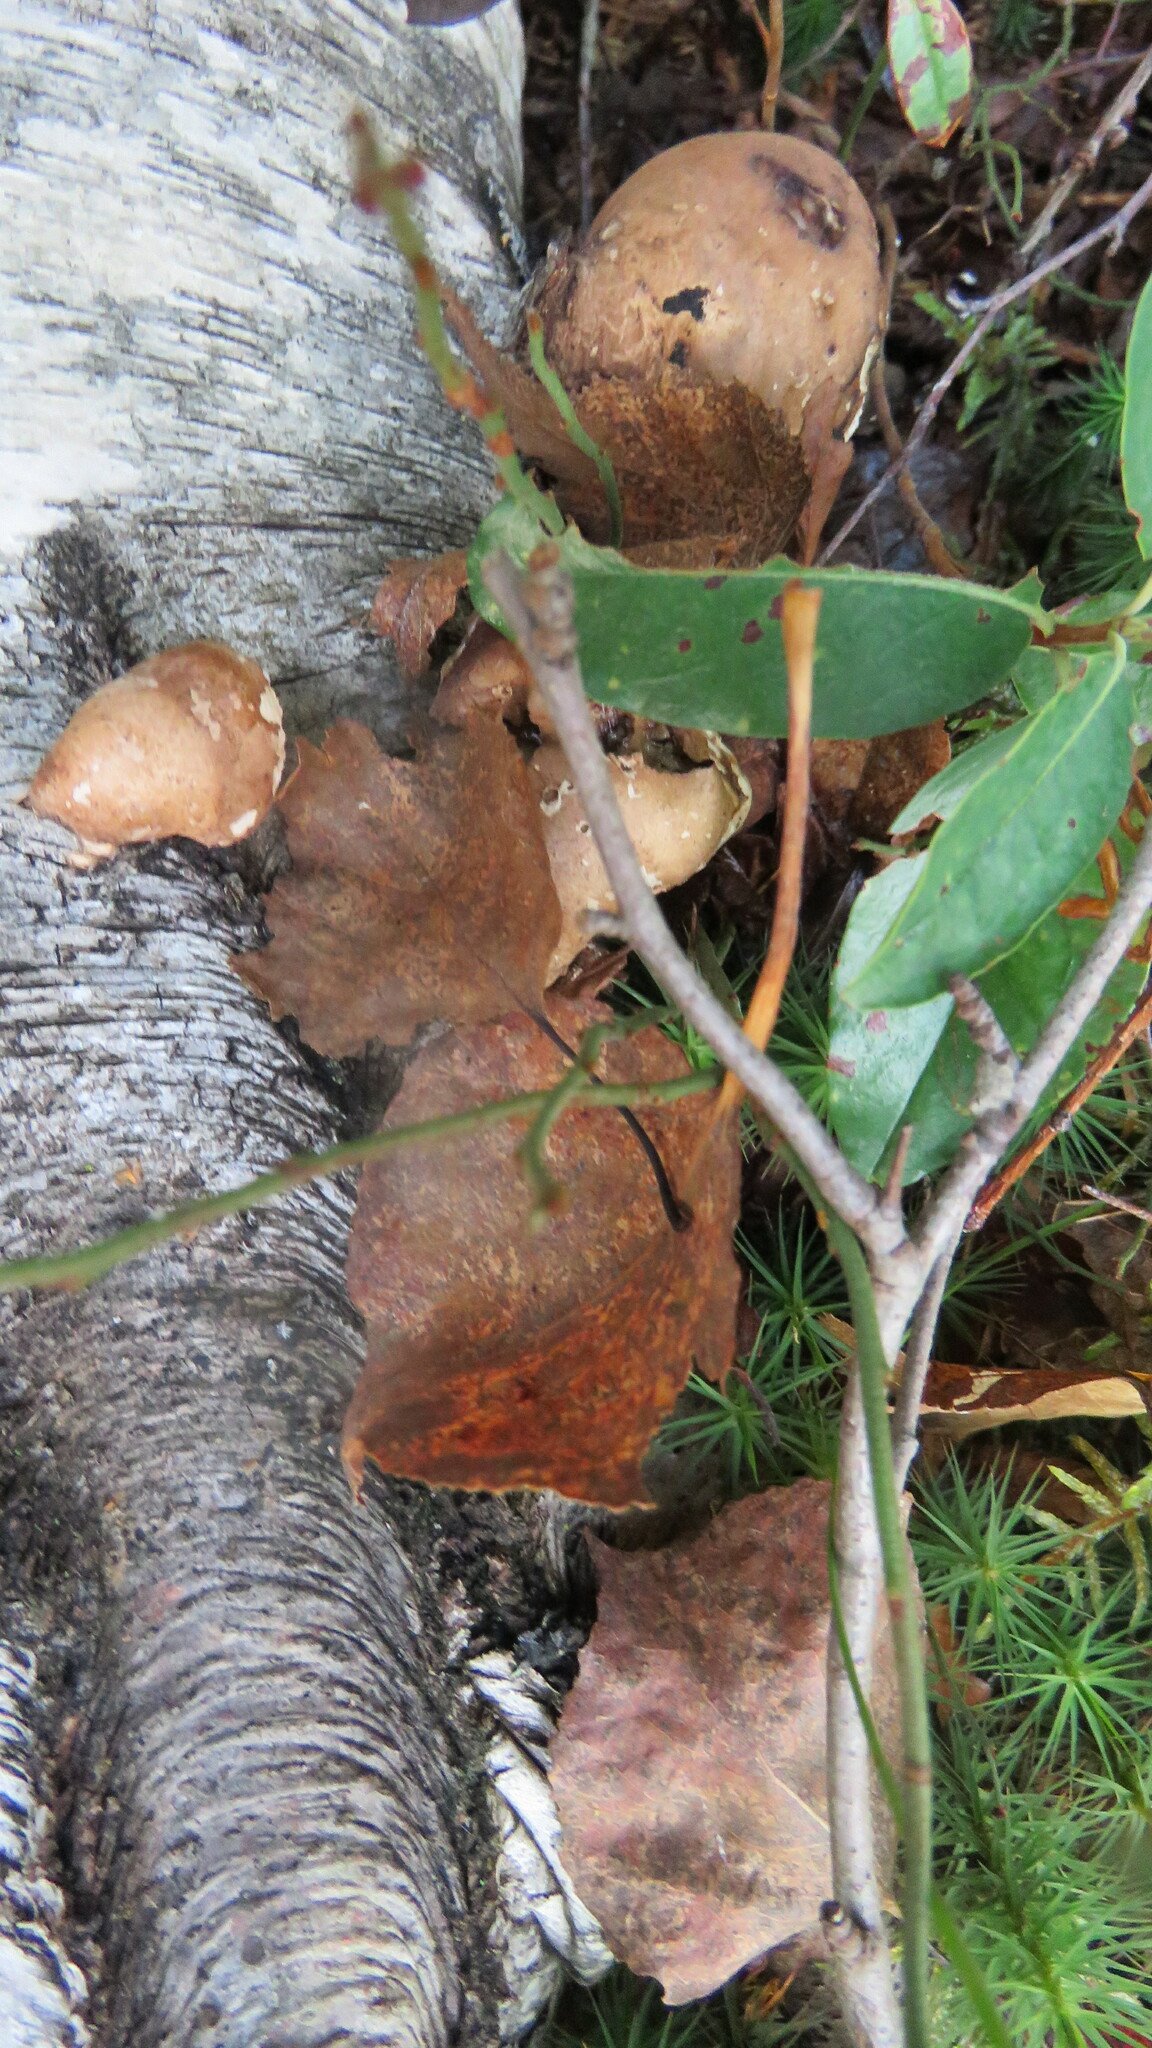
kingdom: Fungi
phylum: Basidiomycota
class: Agaricomycetes
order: Polyporales
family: Fomitopsidaceae
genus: Fomitopsis
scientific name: Fomitopsis betulina
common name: Birch polypore
